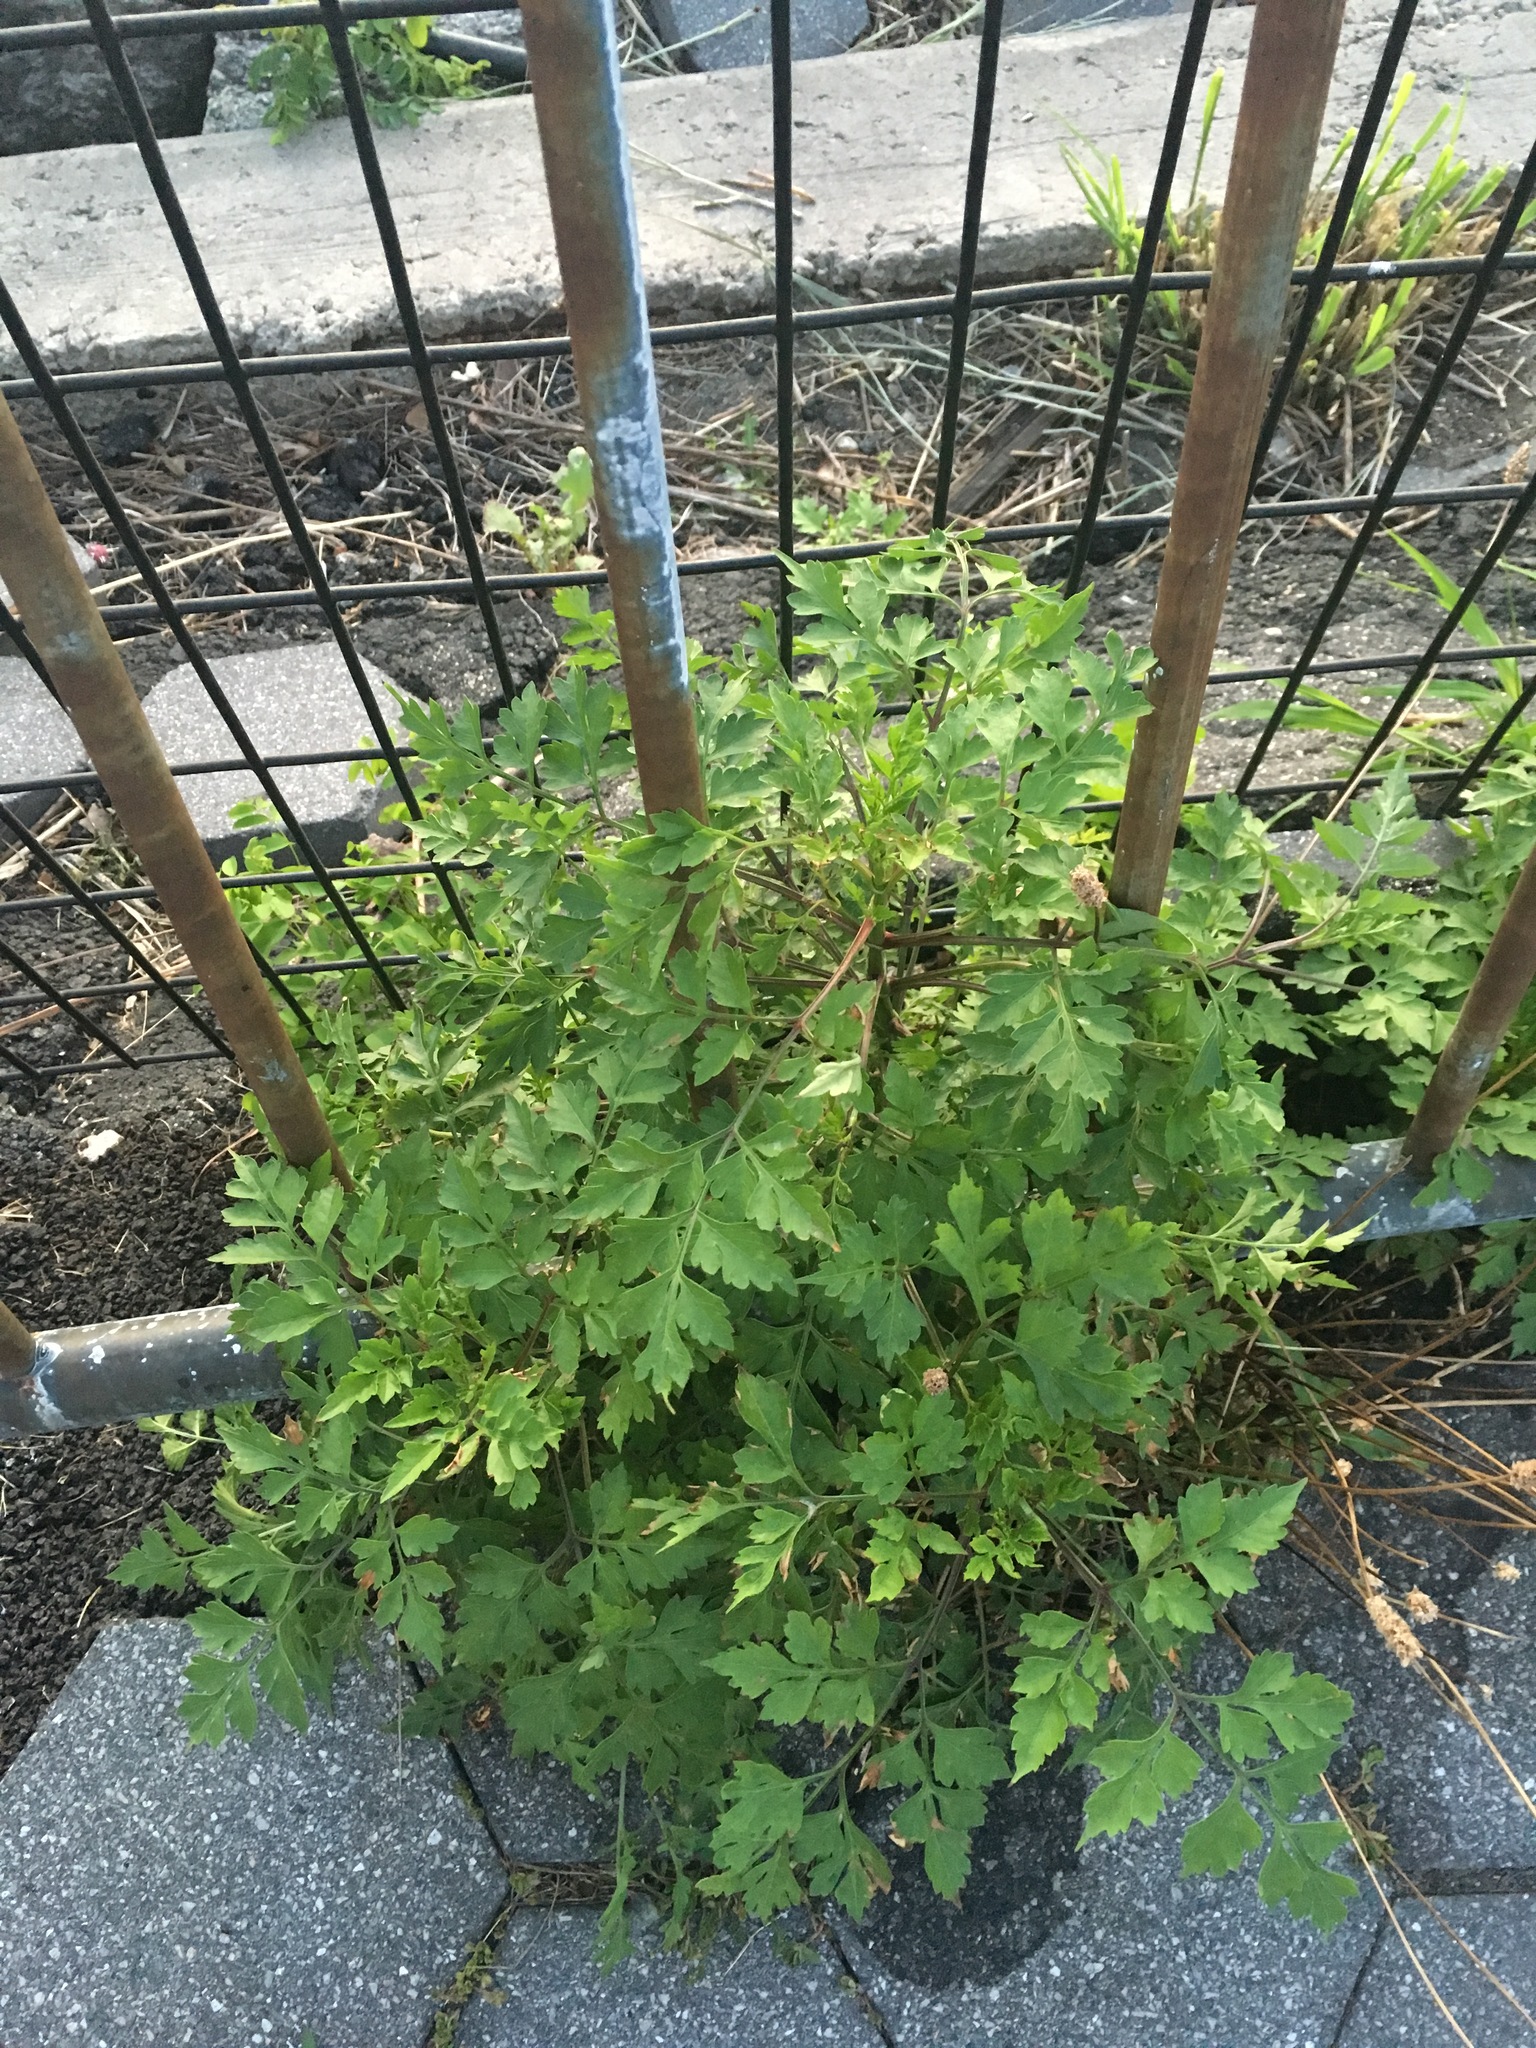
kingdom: Plantae
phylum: Tracheophyta
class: Magnoliopsida
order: Asterales
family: Asteraceae
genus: Bidens
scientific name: Bidens bipinnata
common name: Spanish-needles
